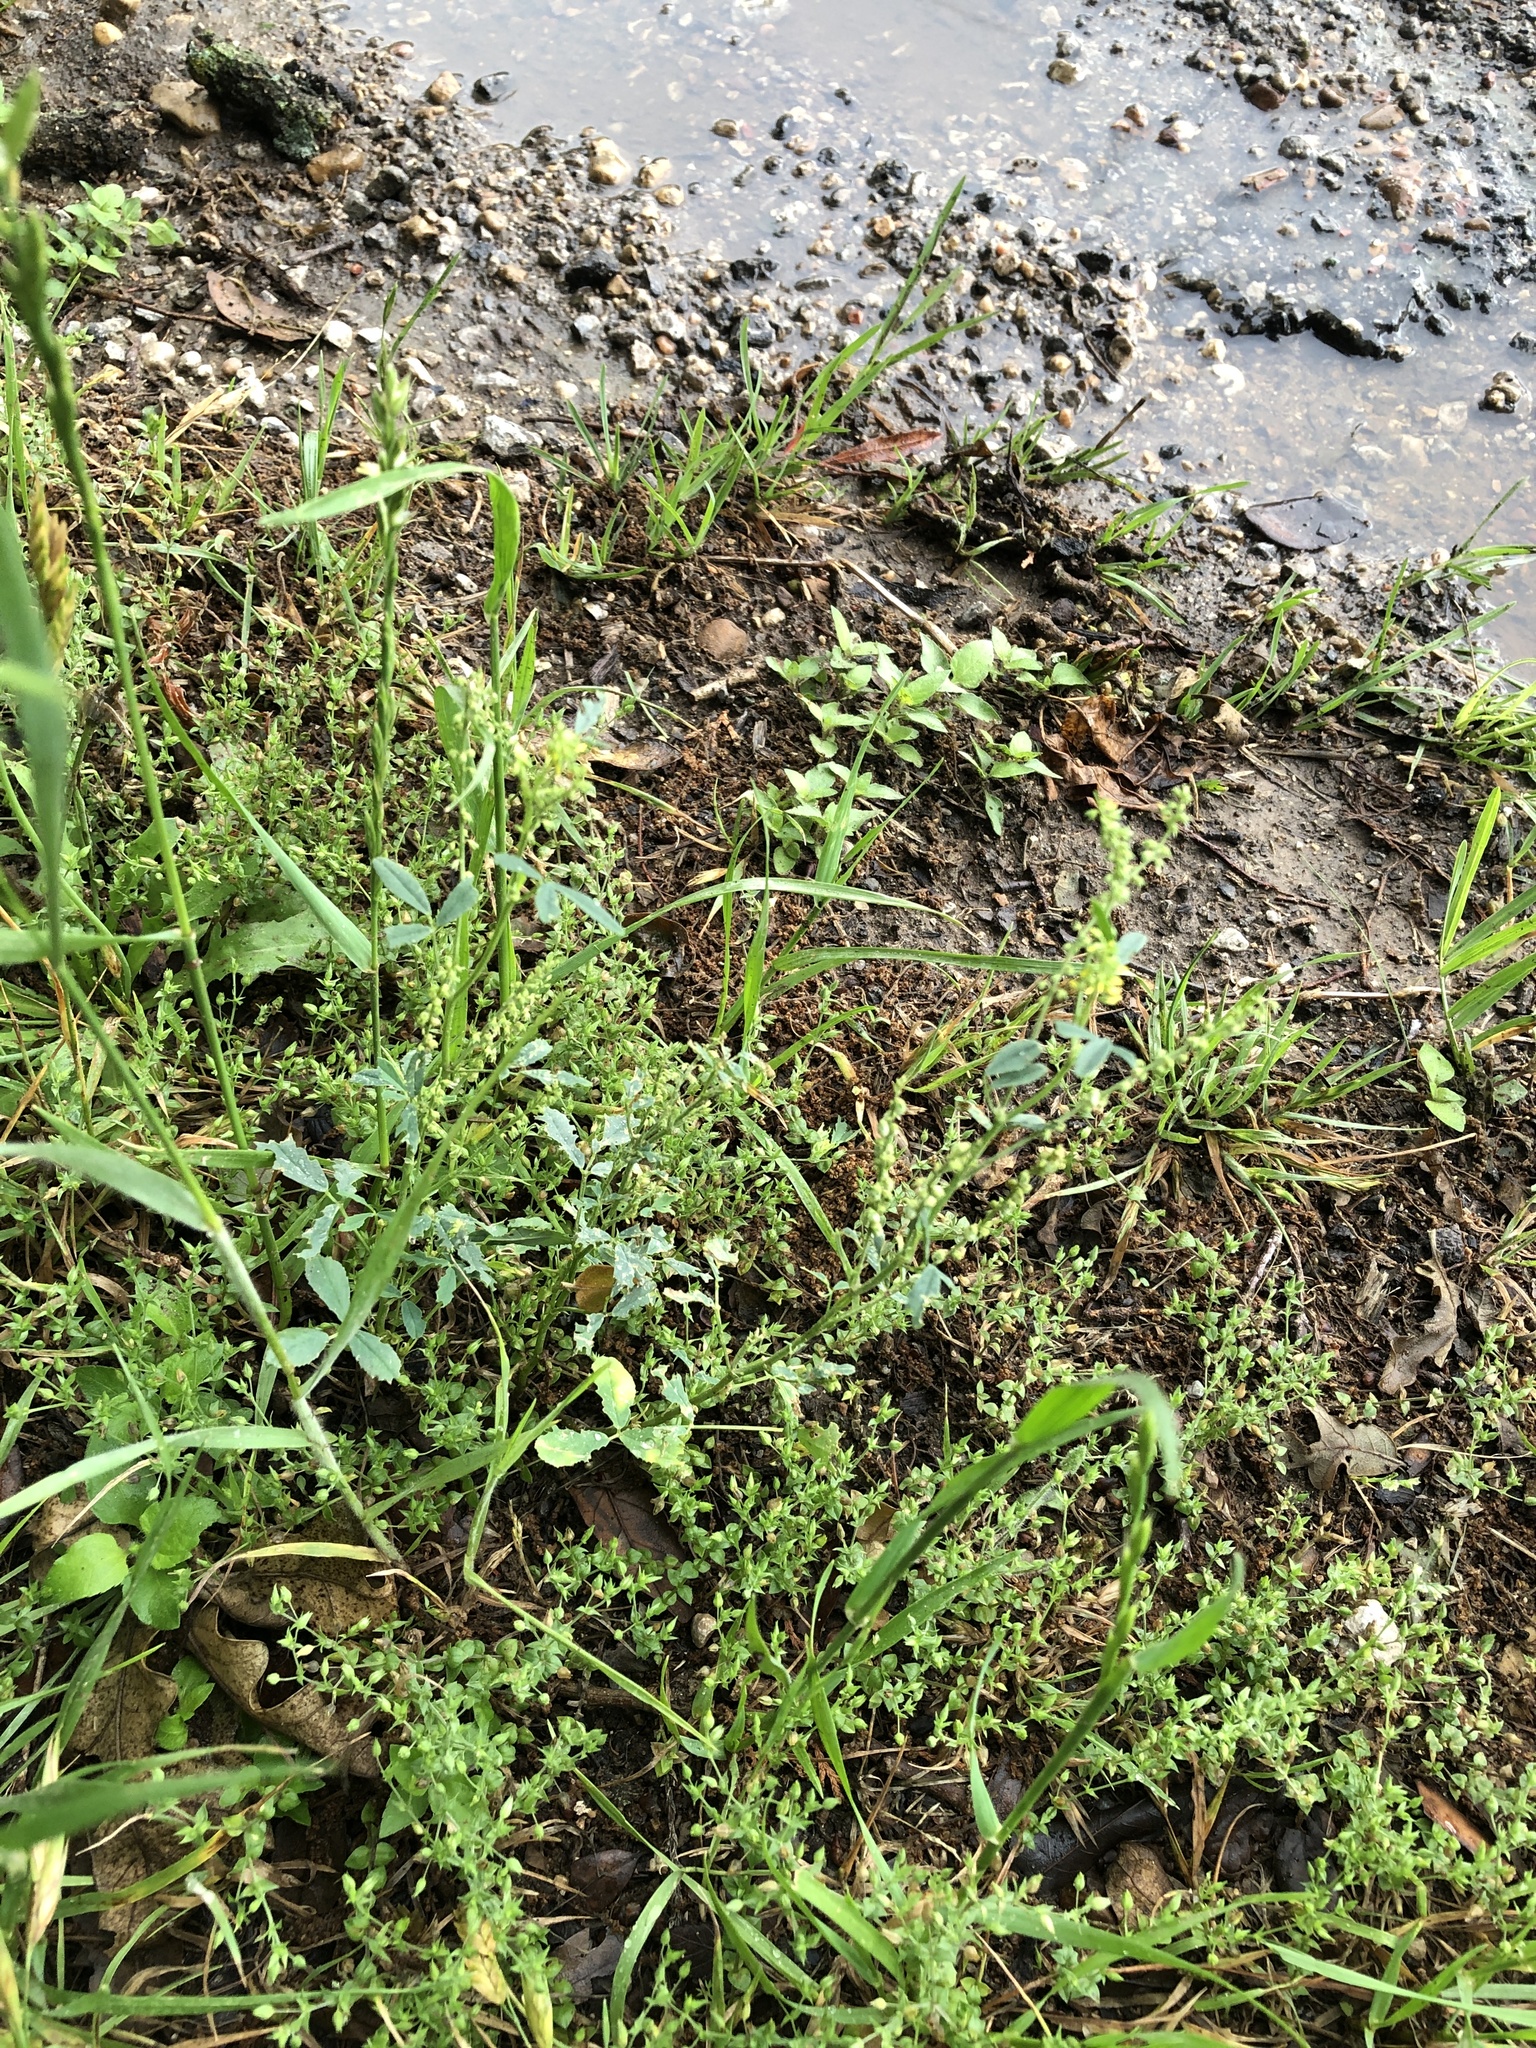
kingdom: Plantae
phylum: Tracheophyta
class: Magnoliopsida
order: Fabales
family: Fabaceae
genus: Melilotus
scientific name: Melilotus indicus
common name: Small melilot
